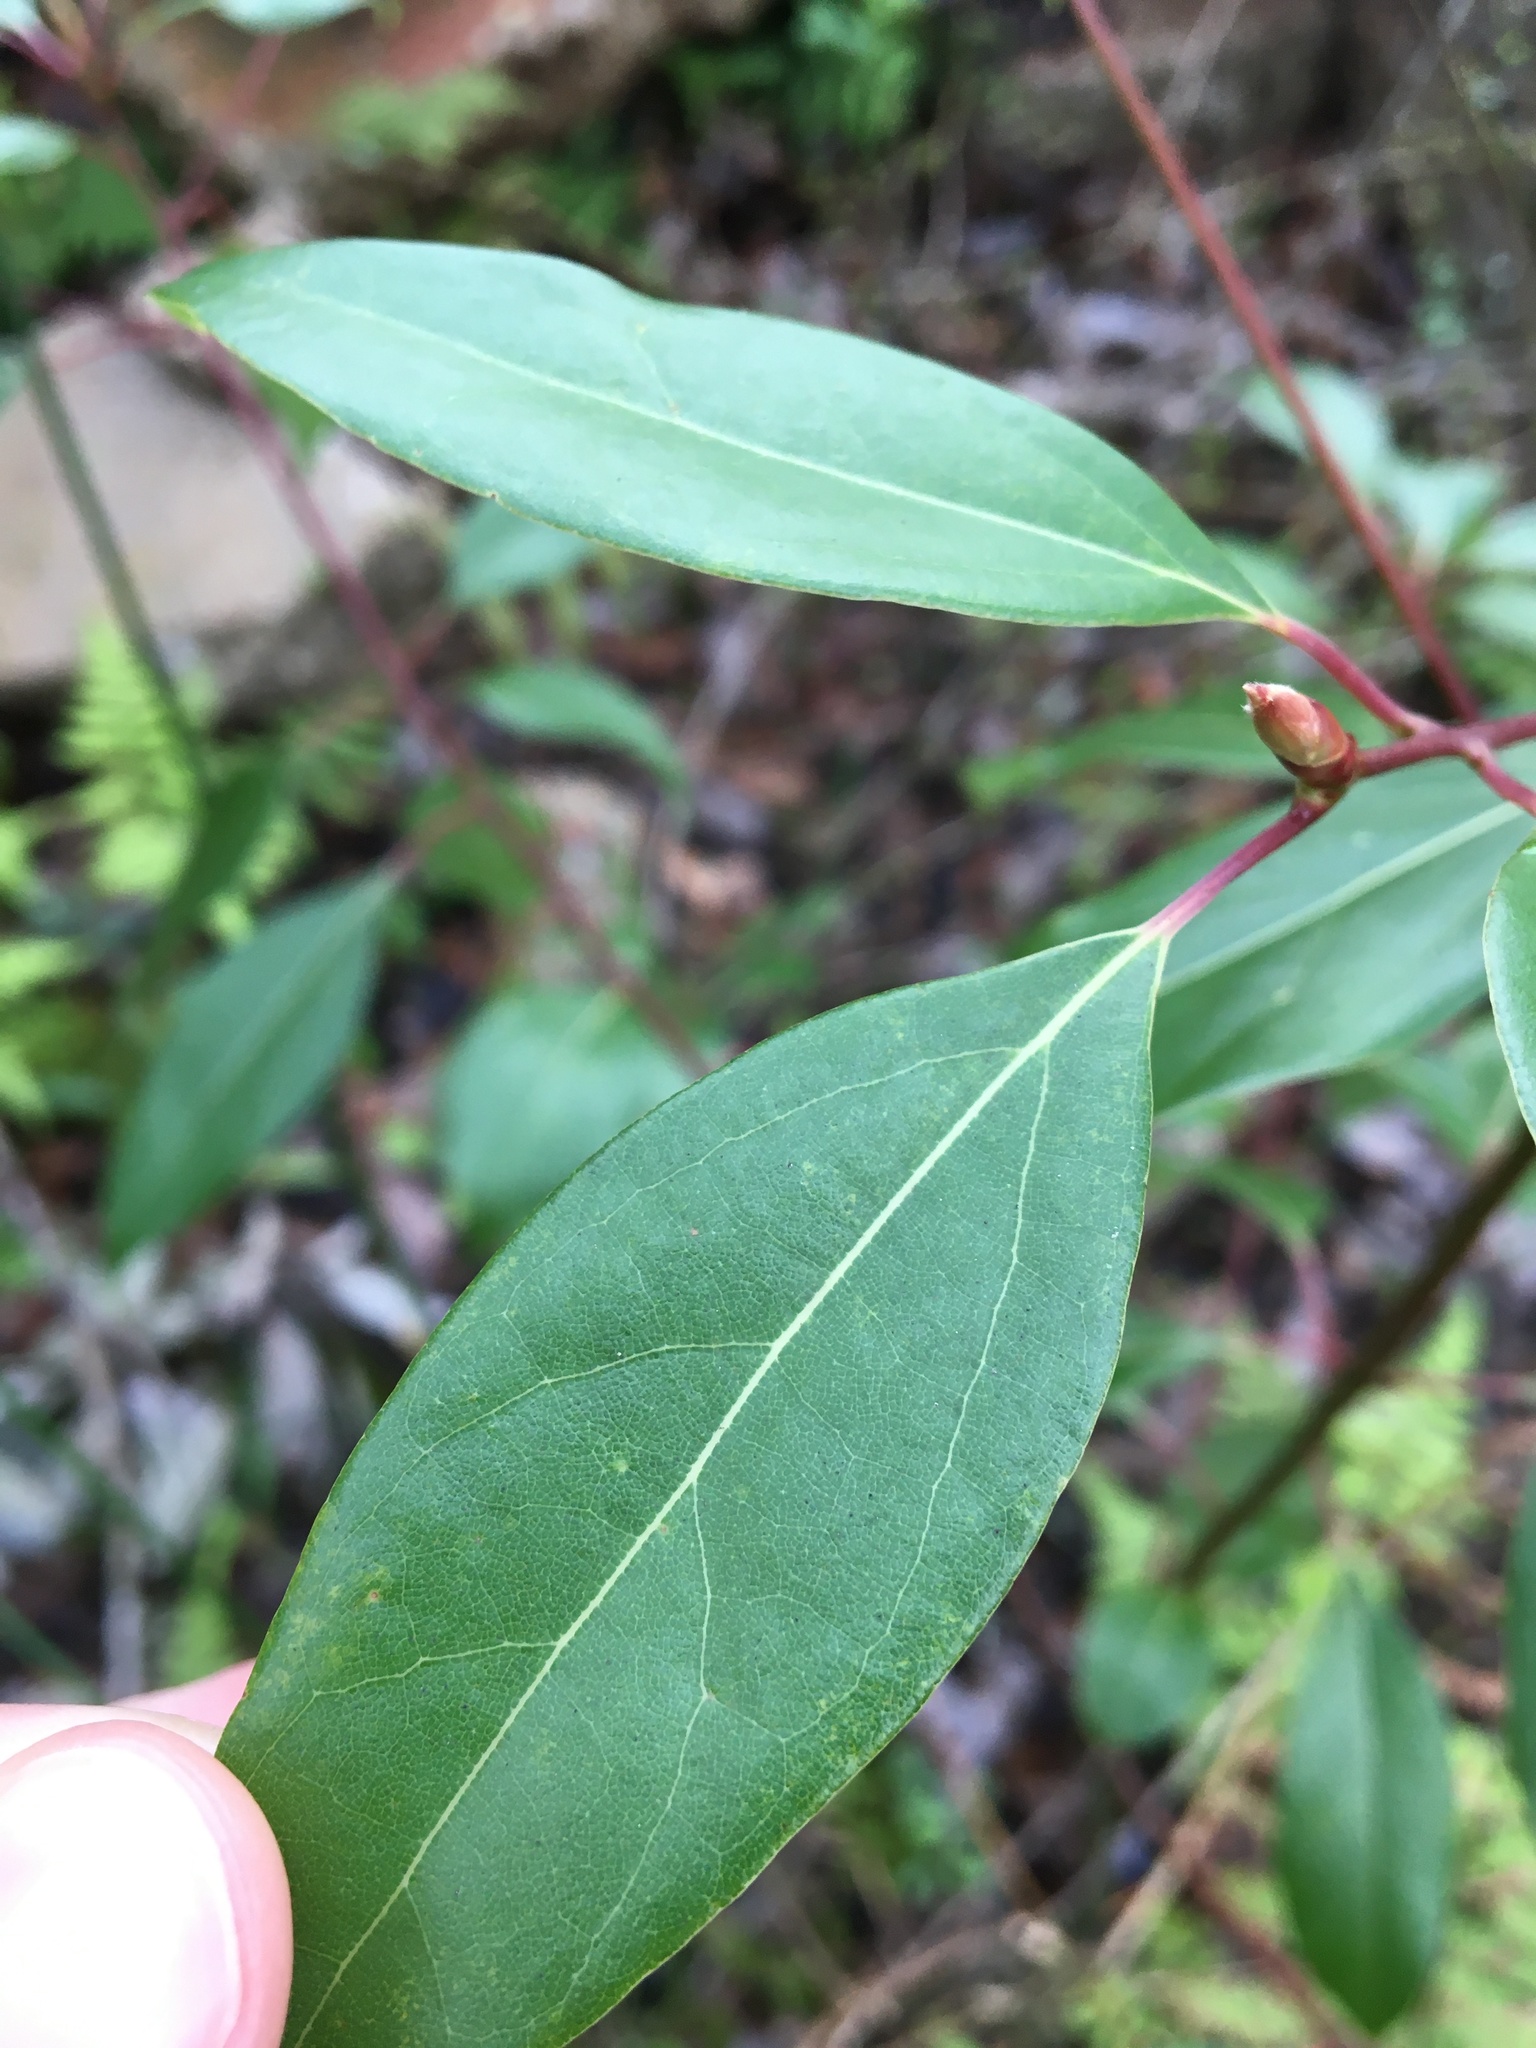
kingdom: Plantae
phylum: Tracheophyta
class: Magnoliopsida
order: Laurales
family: Lauraceae
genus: Cinnamomum
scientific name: Cinnamomum camphora
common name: Camphortree
